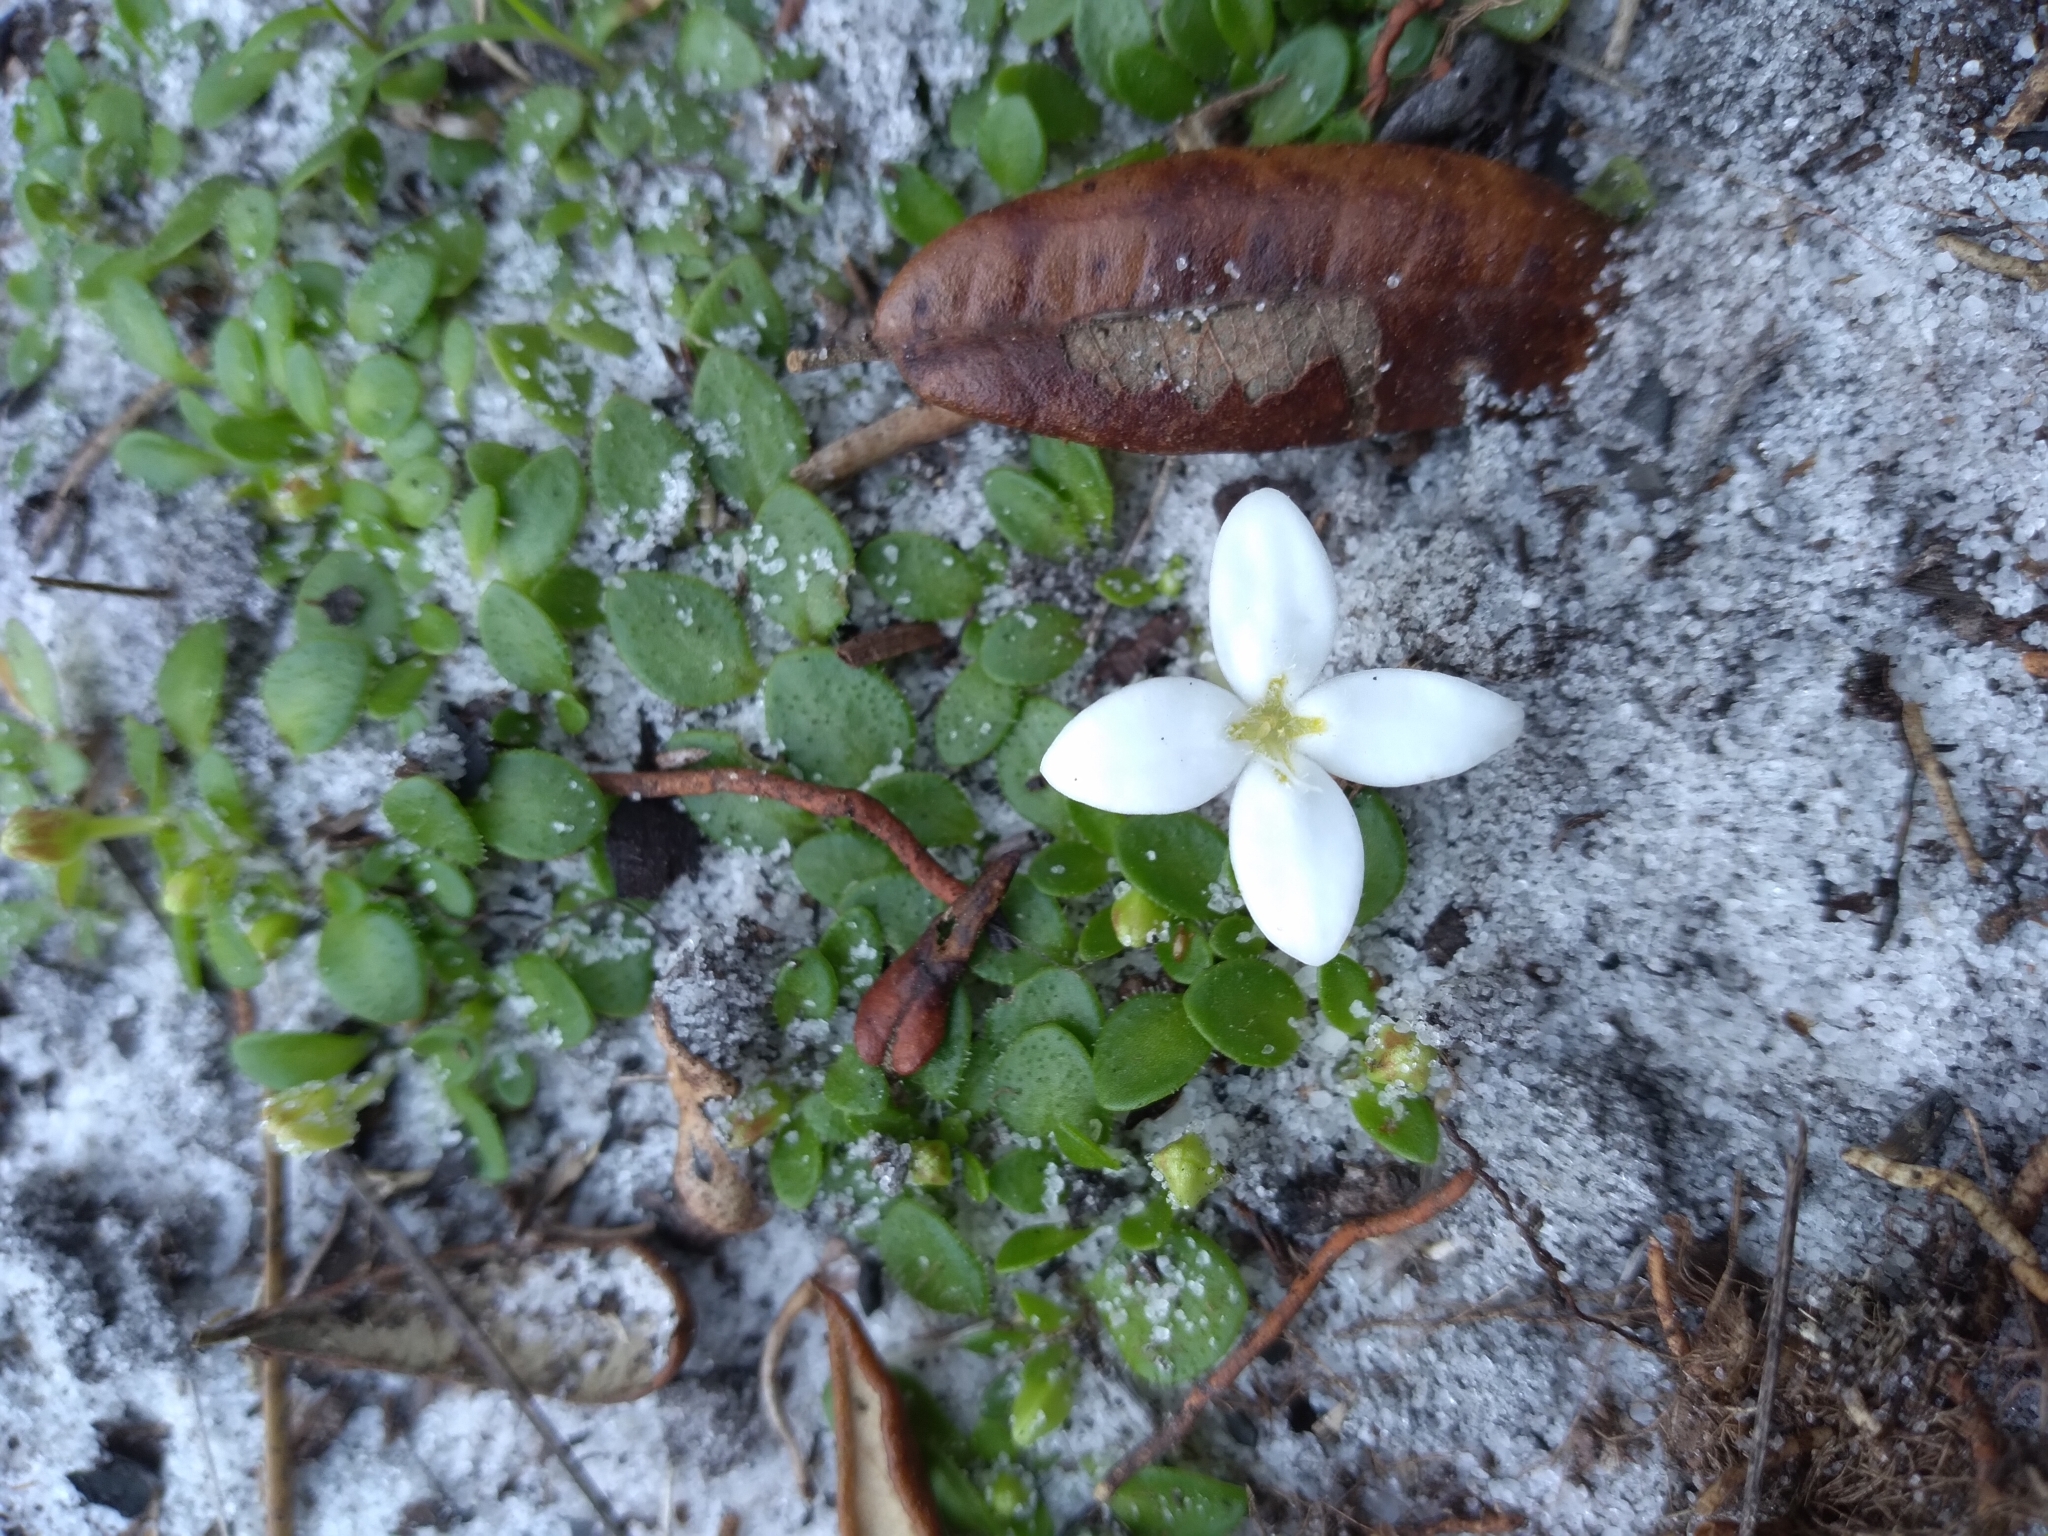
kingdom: Plantae
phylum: Tracheophyta
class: Magnoliopsida
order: Gentianales
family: Rubiaceae
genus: Houstonia
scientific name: Houstonia procumbens
